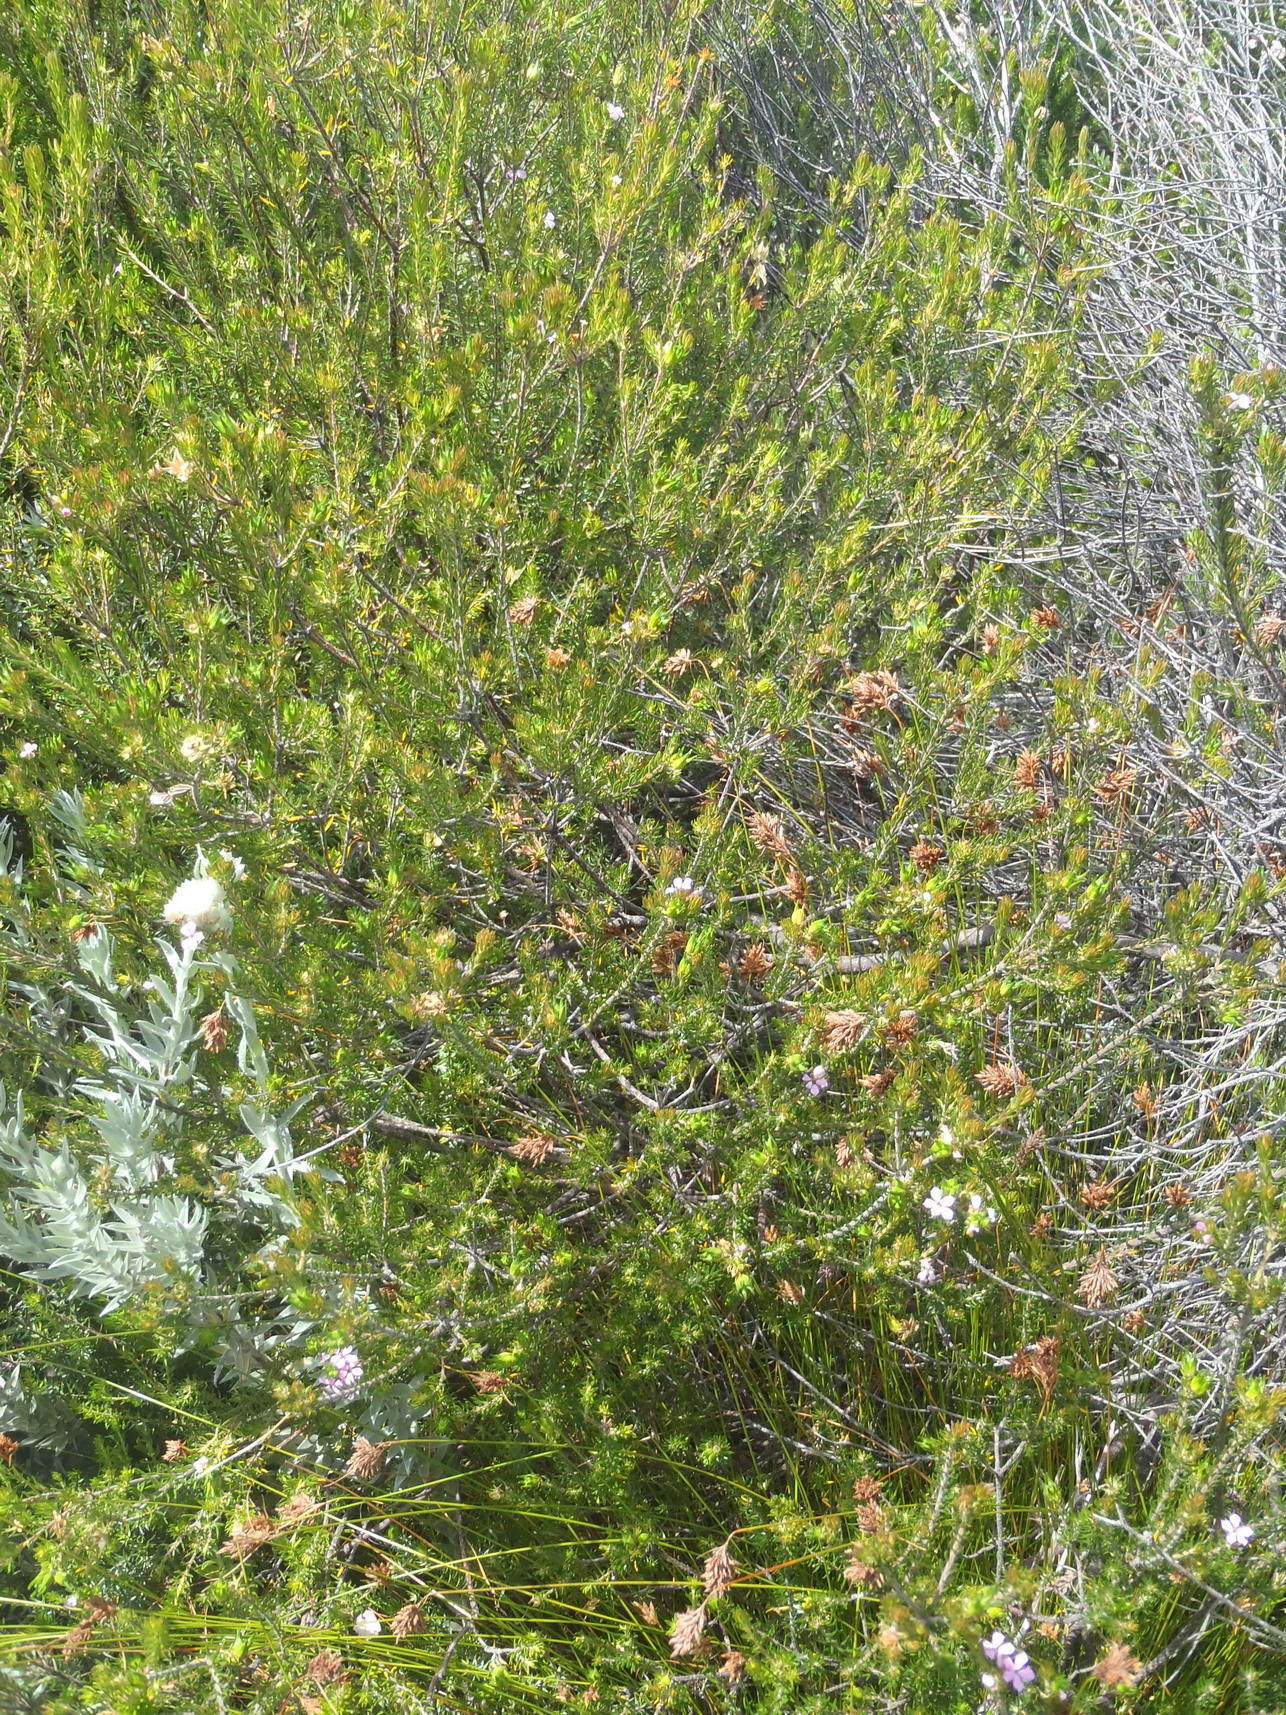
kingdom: Plantae
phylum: Tracheophyta
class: Magnoliopsida
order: Sapindales
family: Rutaceae
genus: Acmadenia
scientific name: Acmadenia alternifolia
